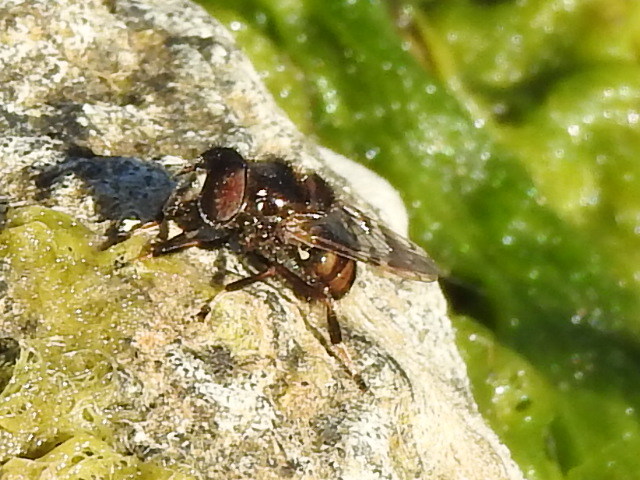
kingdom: Animalia
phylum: Arthropoda
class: Insecta
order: Diptera
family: Syrphidae
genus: Copestylum
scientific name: Copestylum tamaulipanum
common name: Syrphid fly
